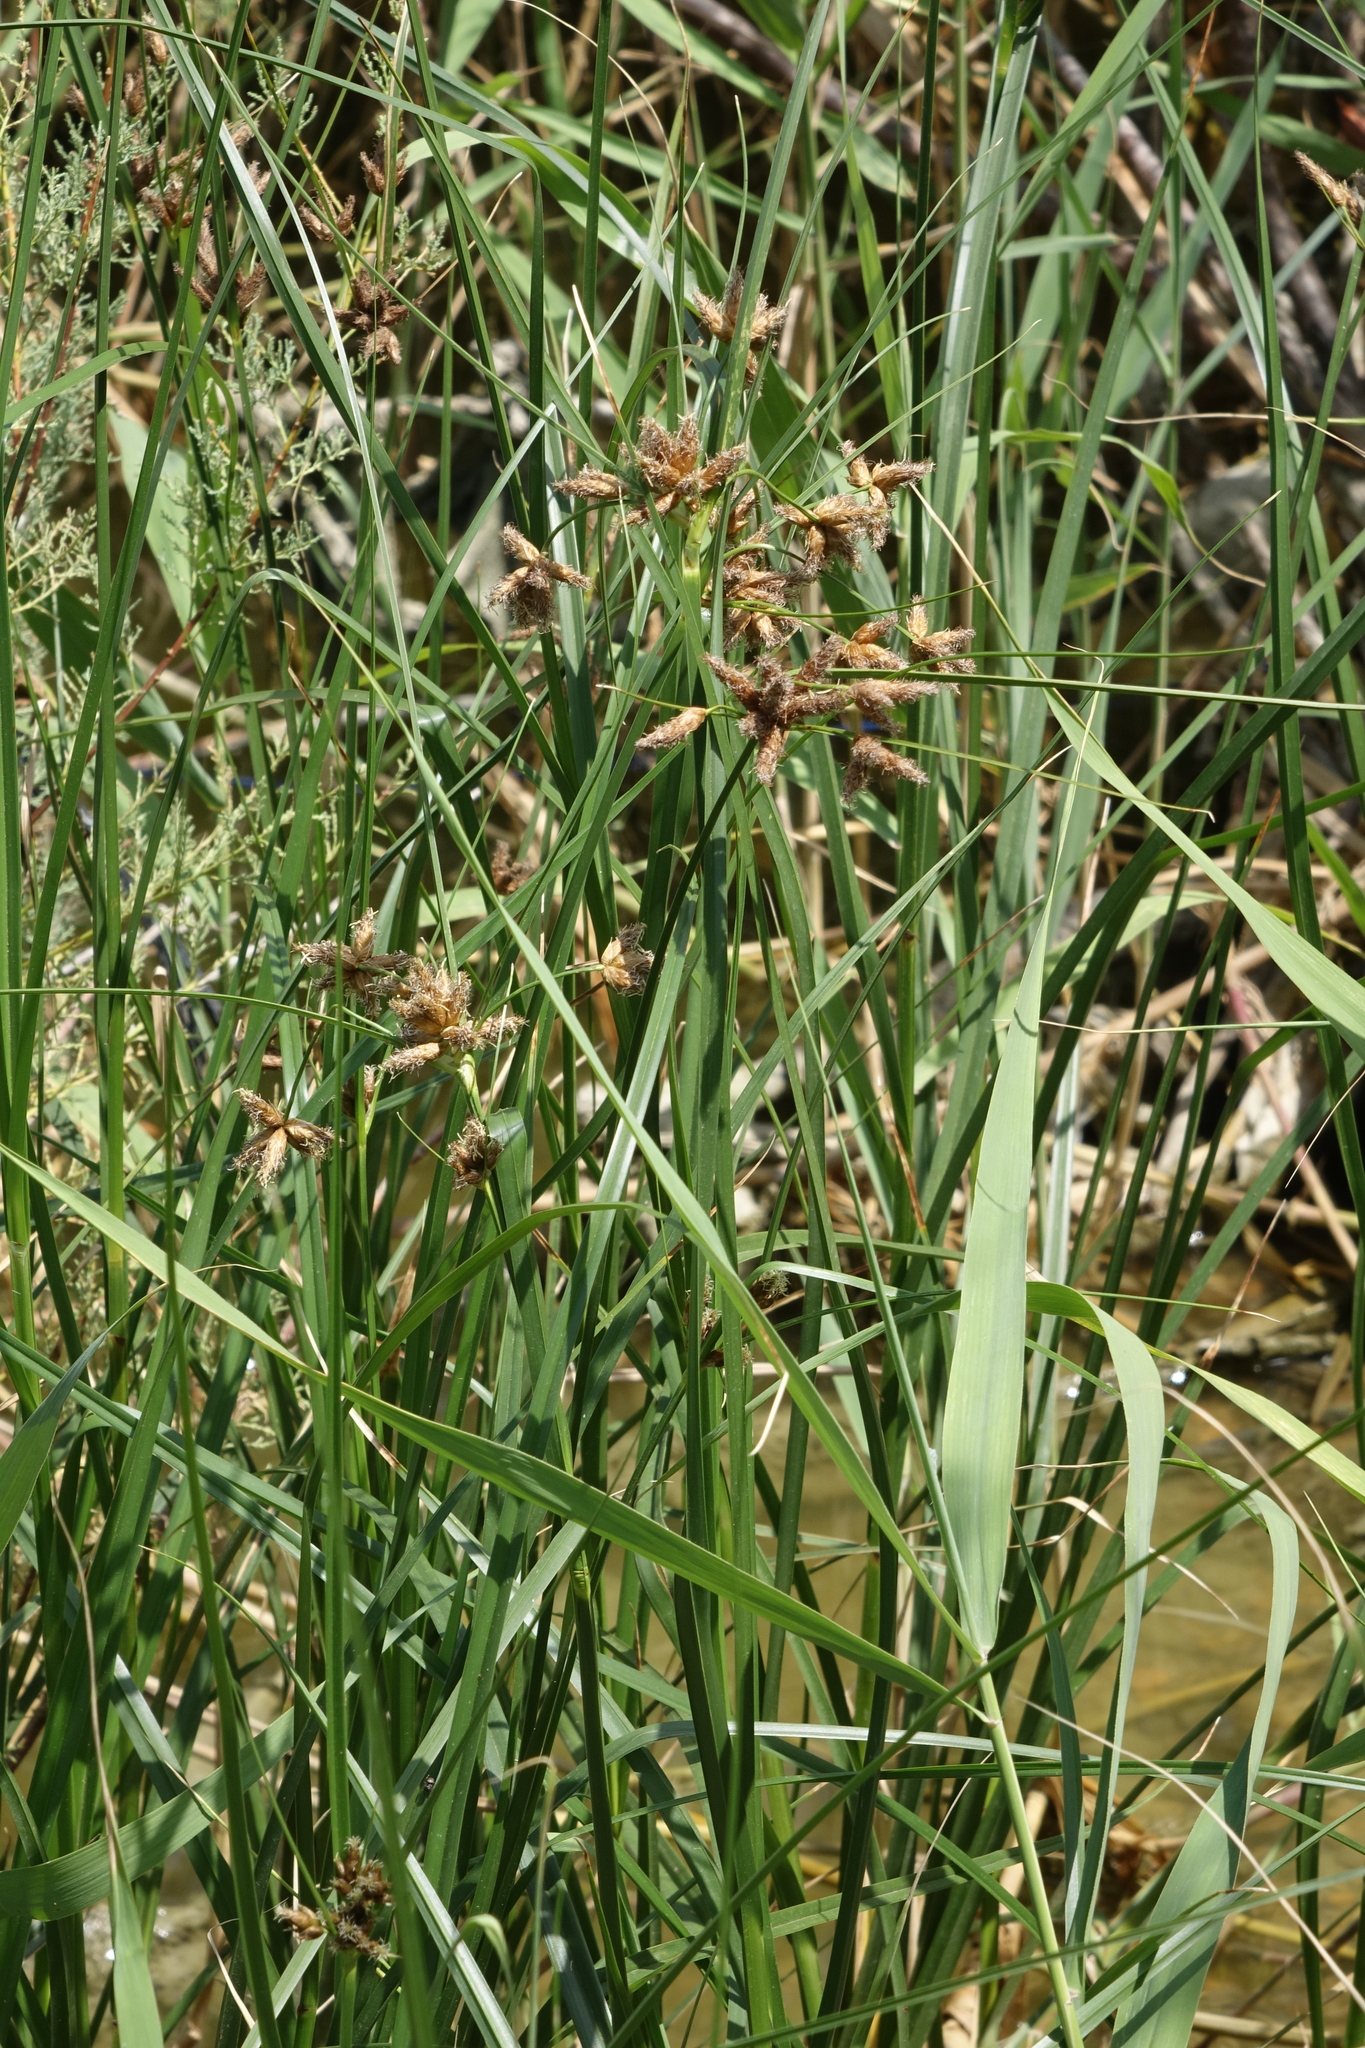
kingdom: Plantae
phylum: Tracheophyta
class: Liliopsida
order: Poales
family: Cyperaceae
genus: Bolboschoenus
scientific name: Bolboschoenus maritimus
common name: Sea club-rush
